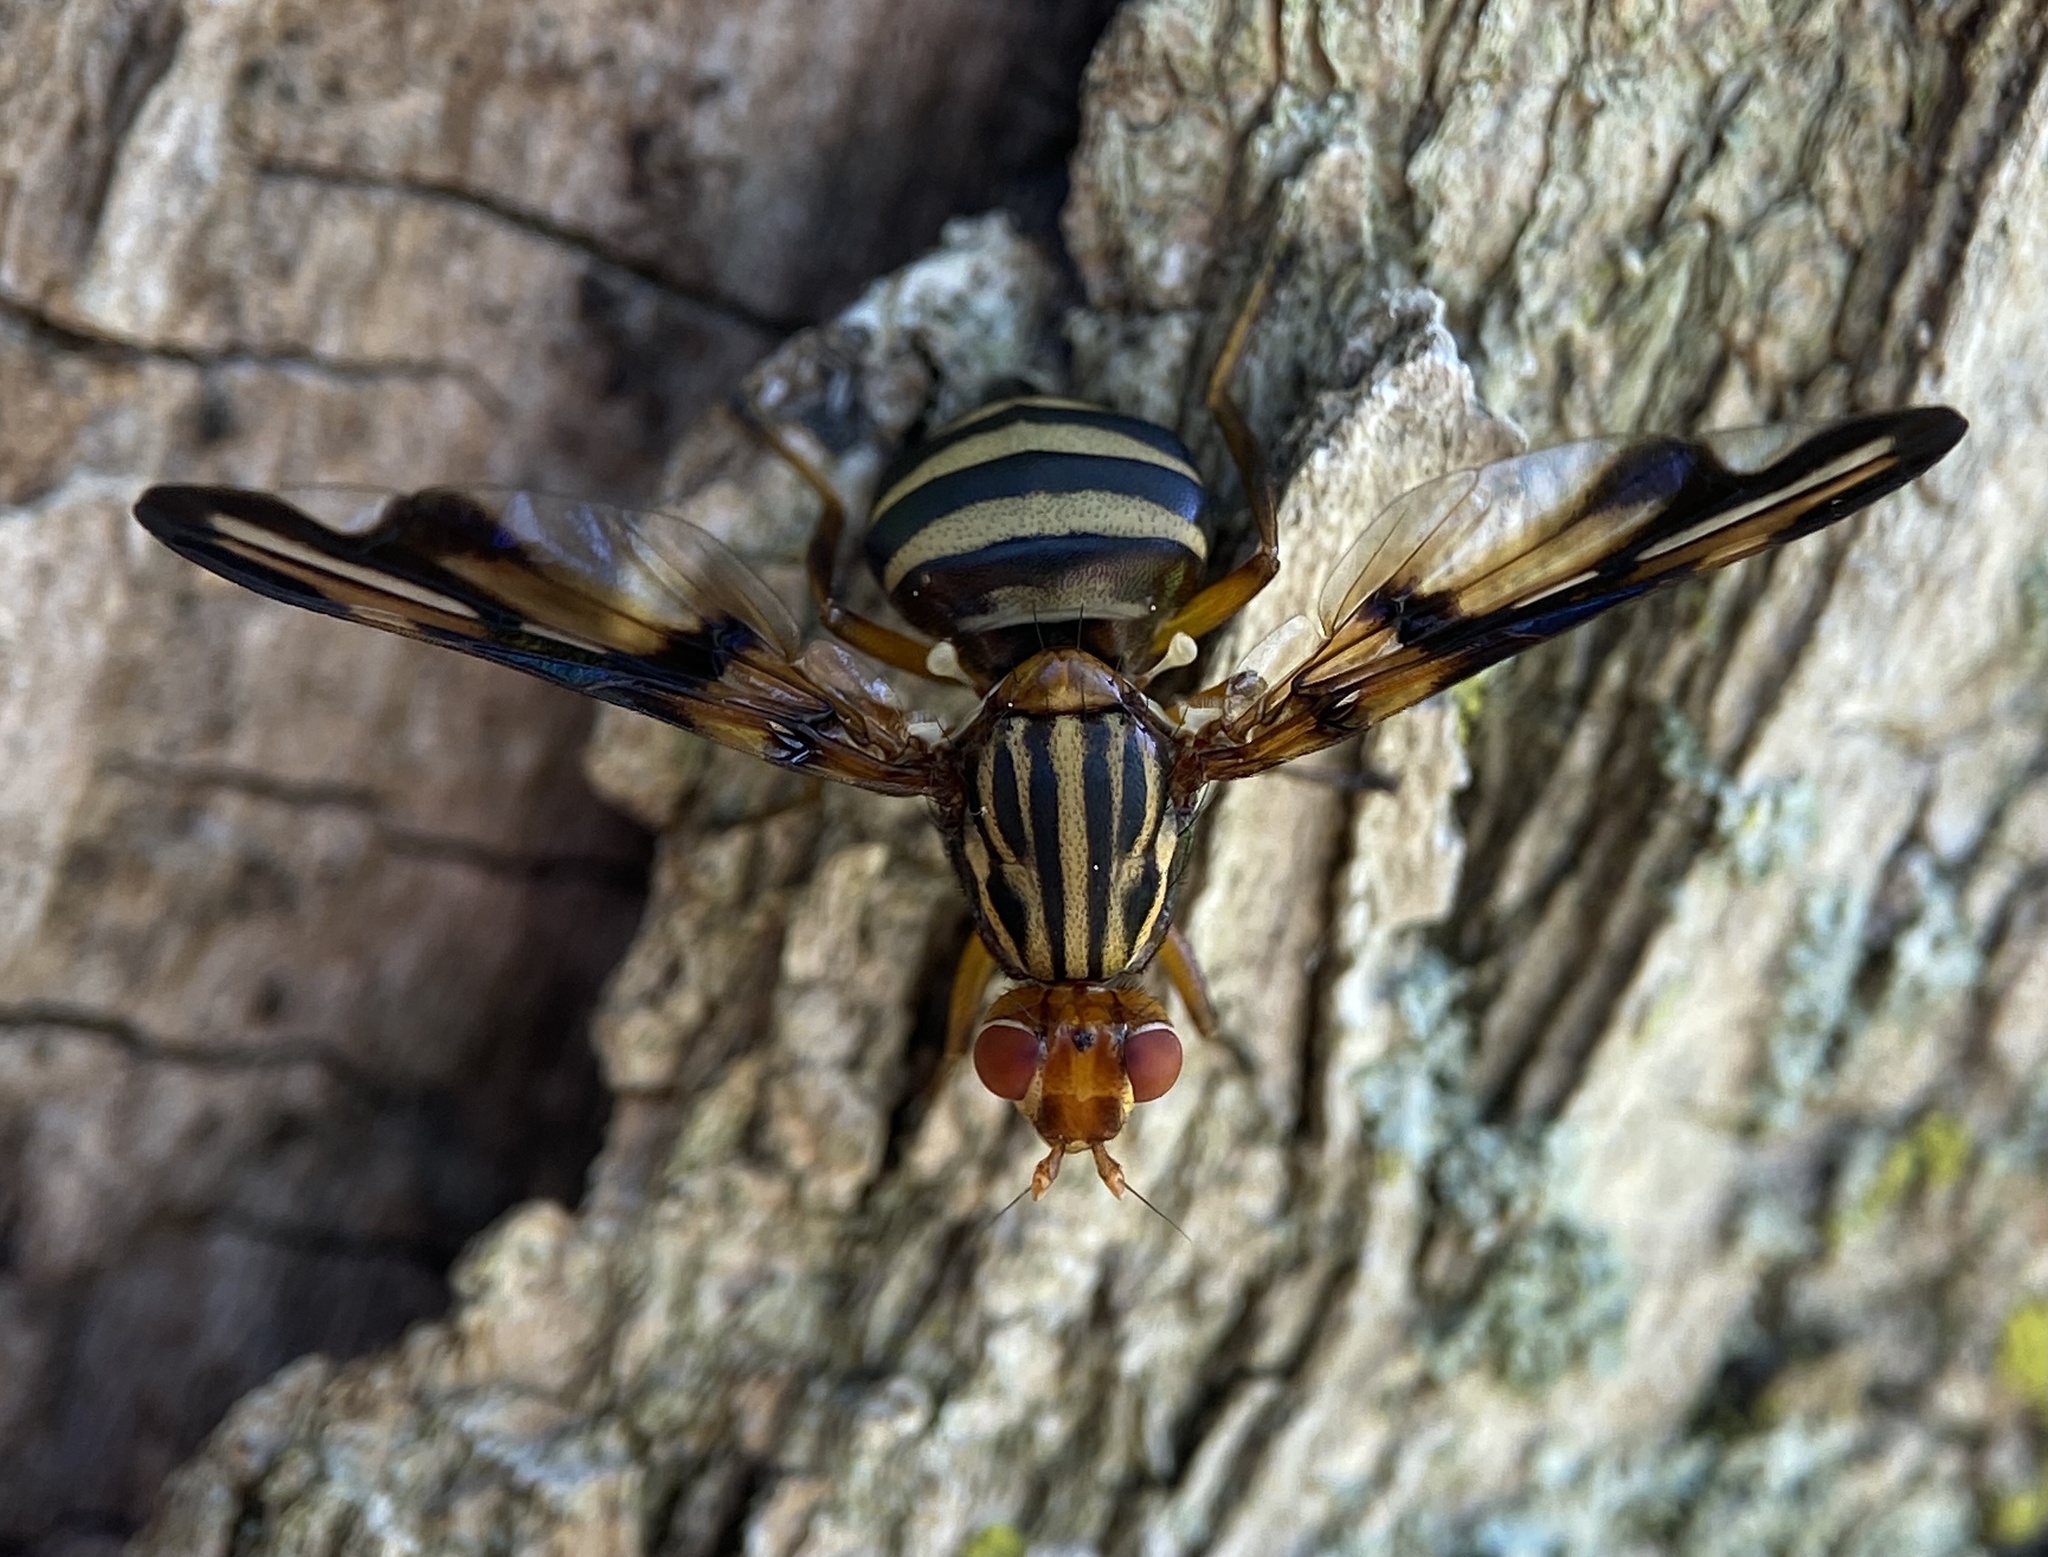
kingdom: Animalia
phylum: Arthropoda
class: Insecta
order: Diptera
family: Ulidiidae
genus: Idana
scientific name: Idana marginata
